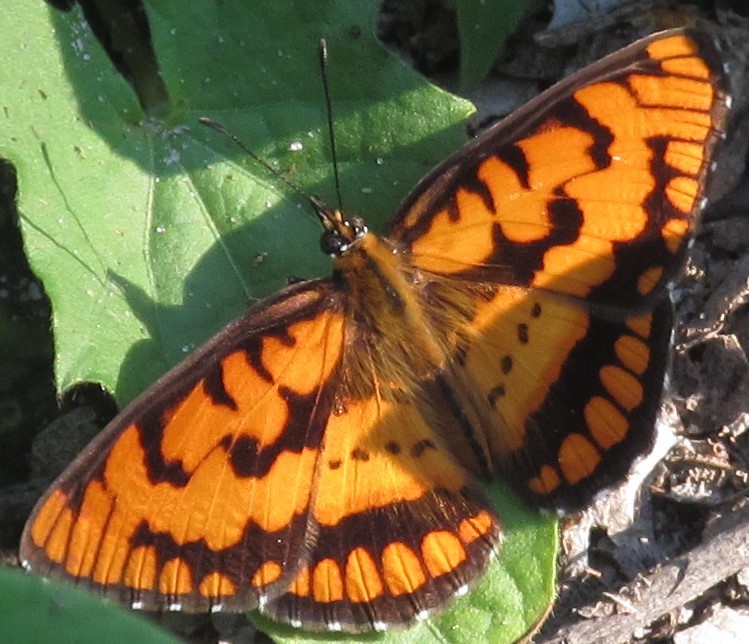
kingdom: Animalia
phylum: Arthropoda
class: Insecta
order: Lepidoptera
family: Nymphalidae
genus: Byblia
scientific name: Byblia ilithyia
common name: Spotted joker
